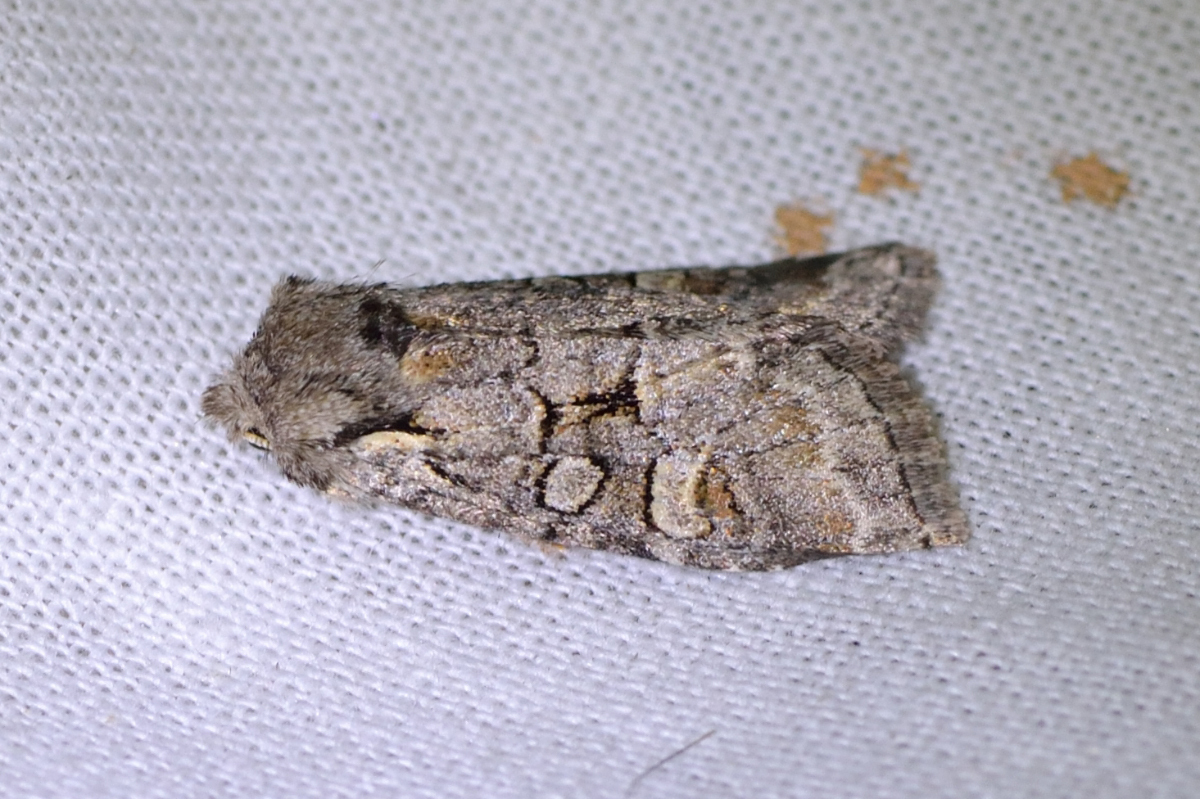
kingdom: Animalia
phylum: Arthropoda
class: Insecta
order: Lepidoptera
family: Noctuidae
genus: Brachylomia
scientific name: Brachylomia viminalis
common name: Minor shoulder-knot
